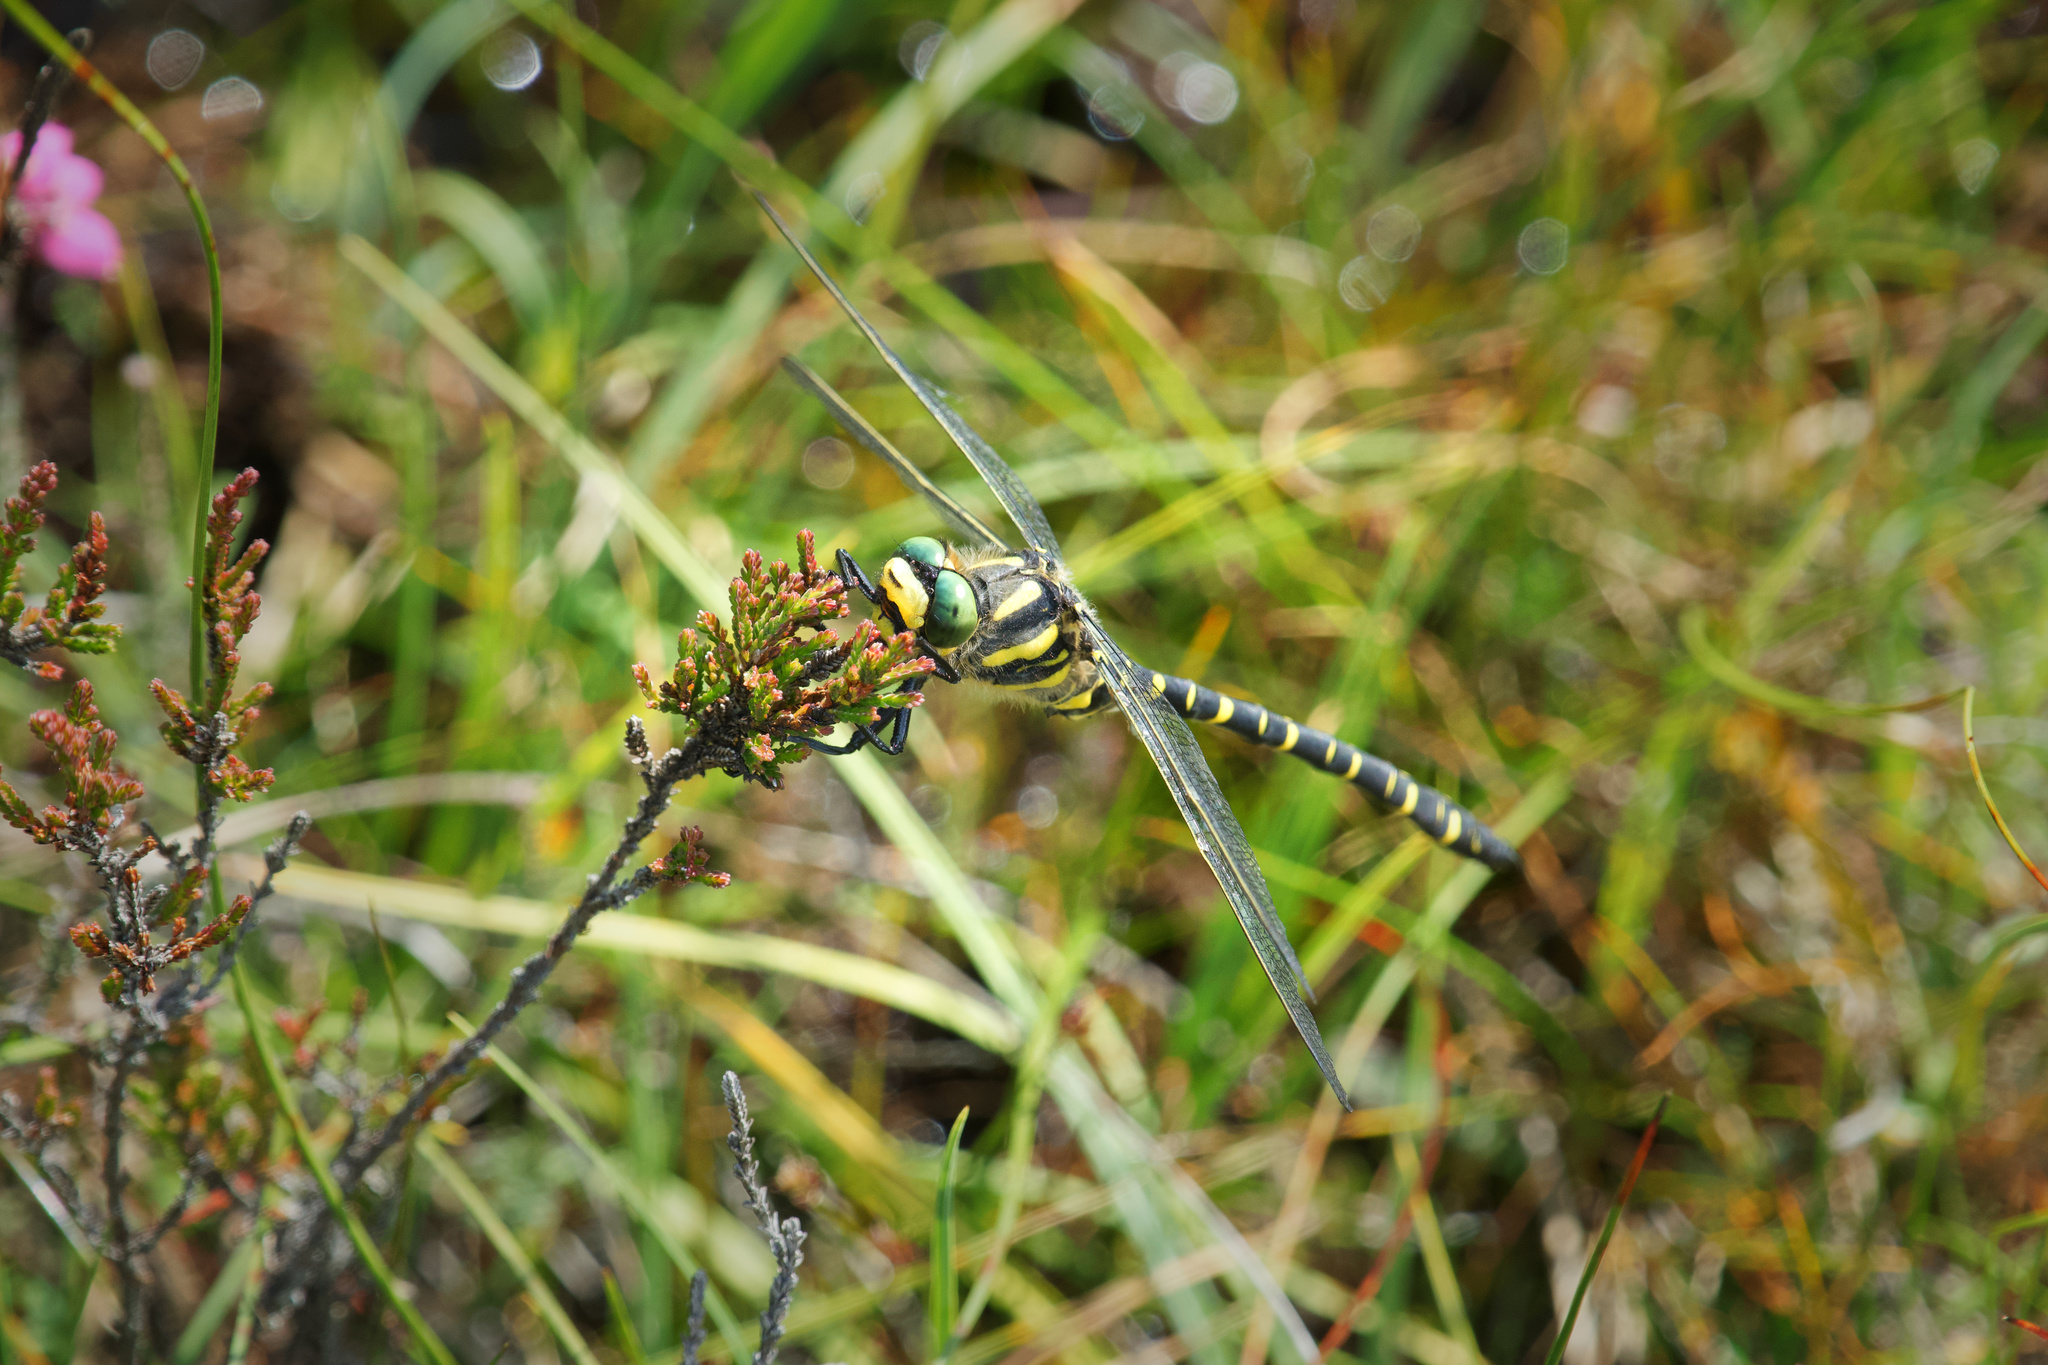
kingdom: Animalia
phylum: Arthropoda
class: Insecta
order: Odonata
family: Cordulegastridae
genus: Cordulegaster
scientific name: Cordulegaster boltonii
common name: Golden-ringed dragonfly
